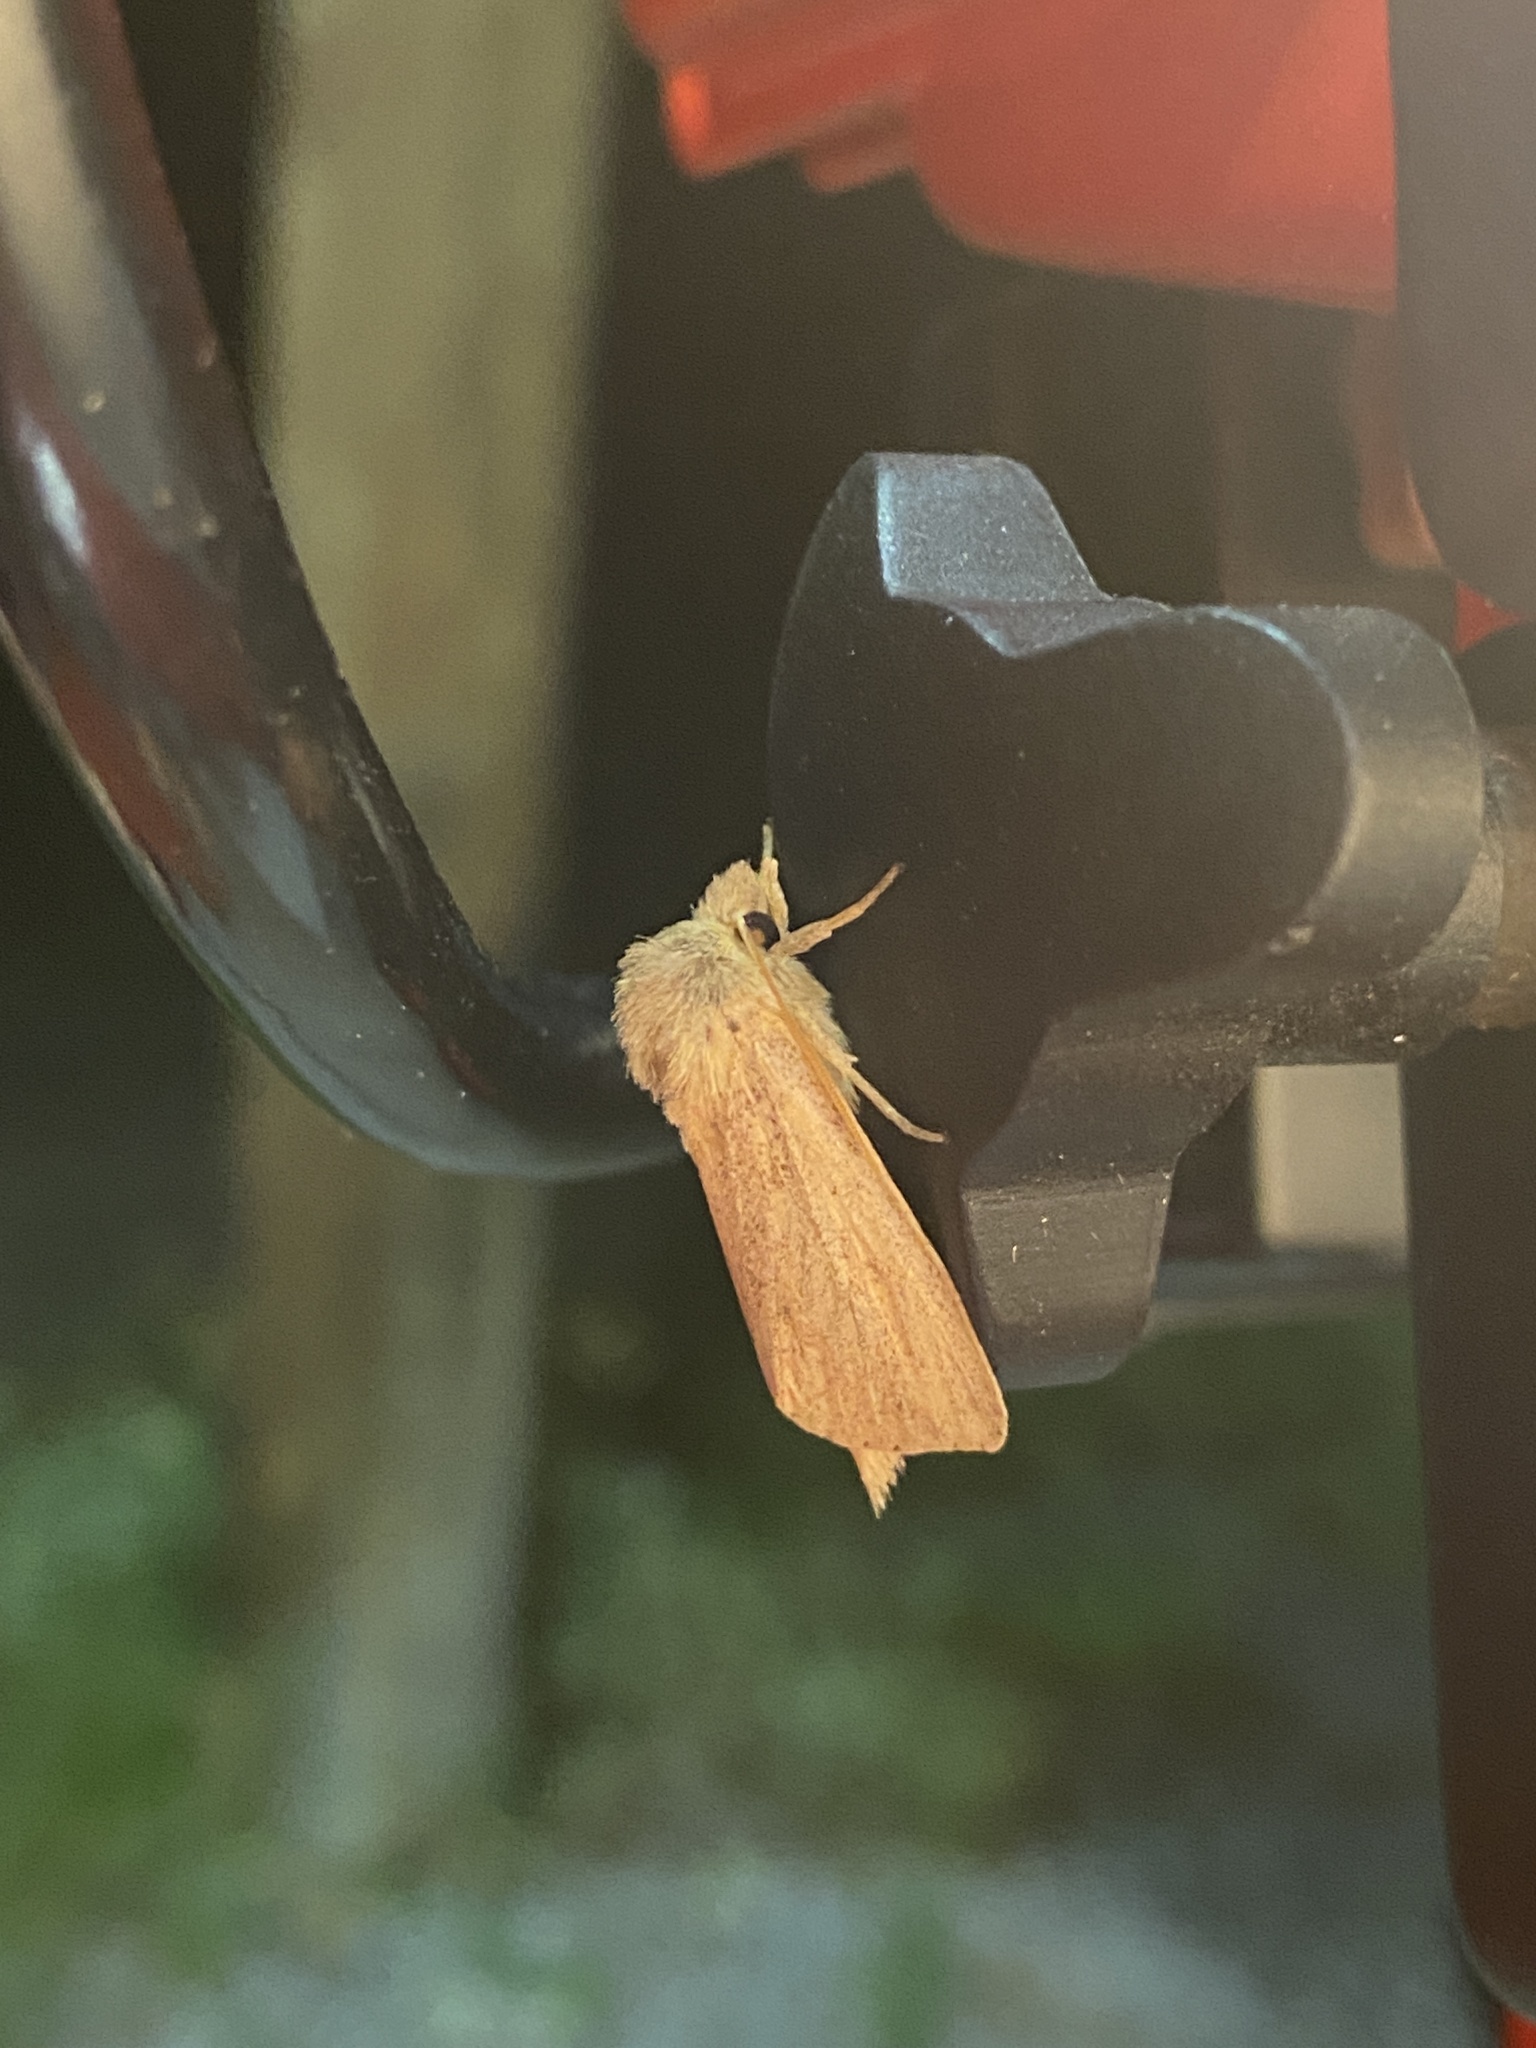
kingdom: Animalia
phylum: Arthropoda
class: Insecta
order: Lepidoptera
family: Noctuidae
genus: Globia
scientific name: Globia oblonga
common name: Oblong sedge borer moth
